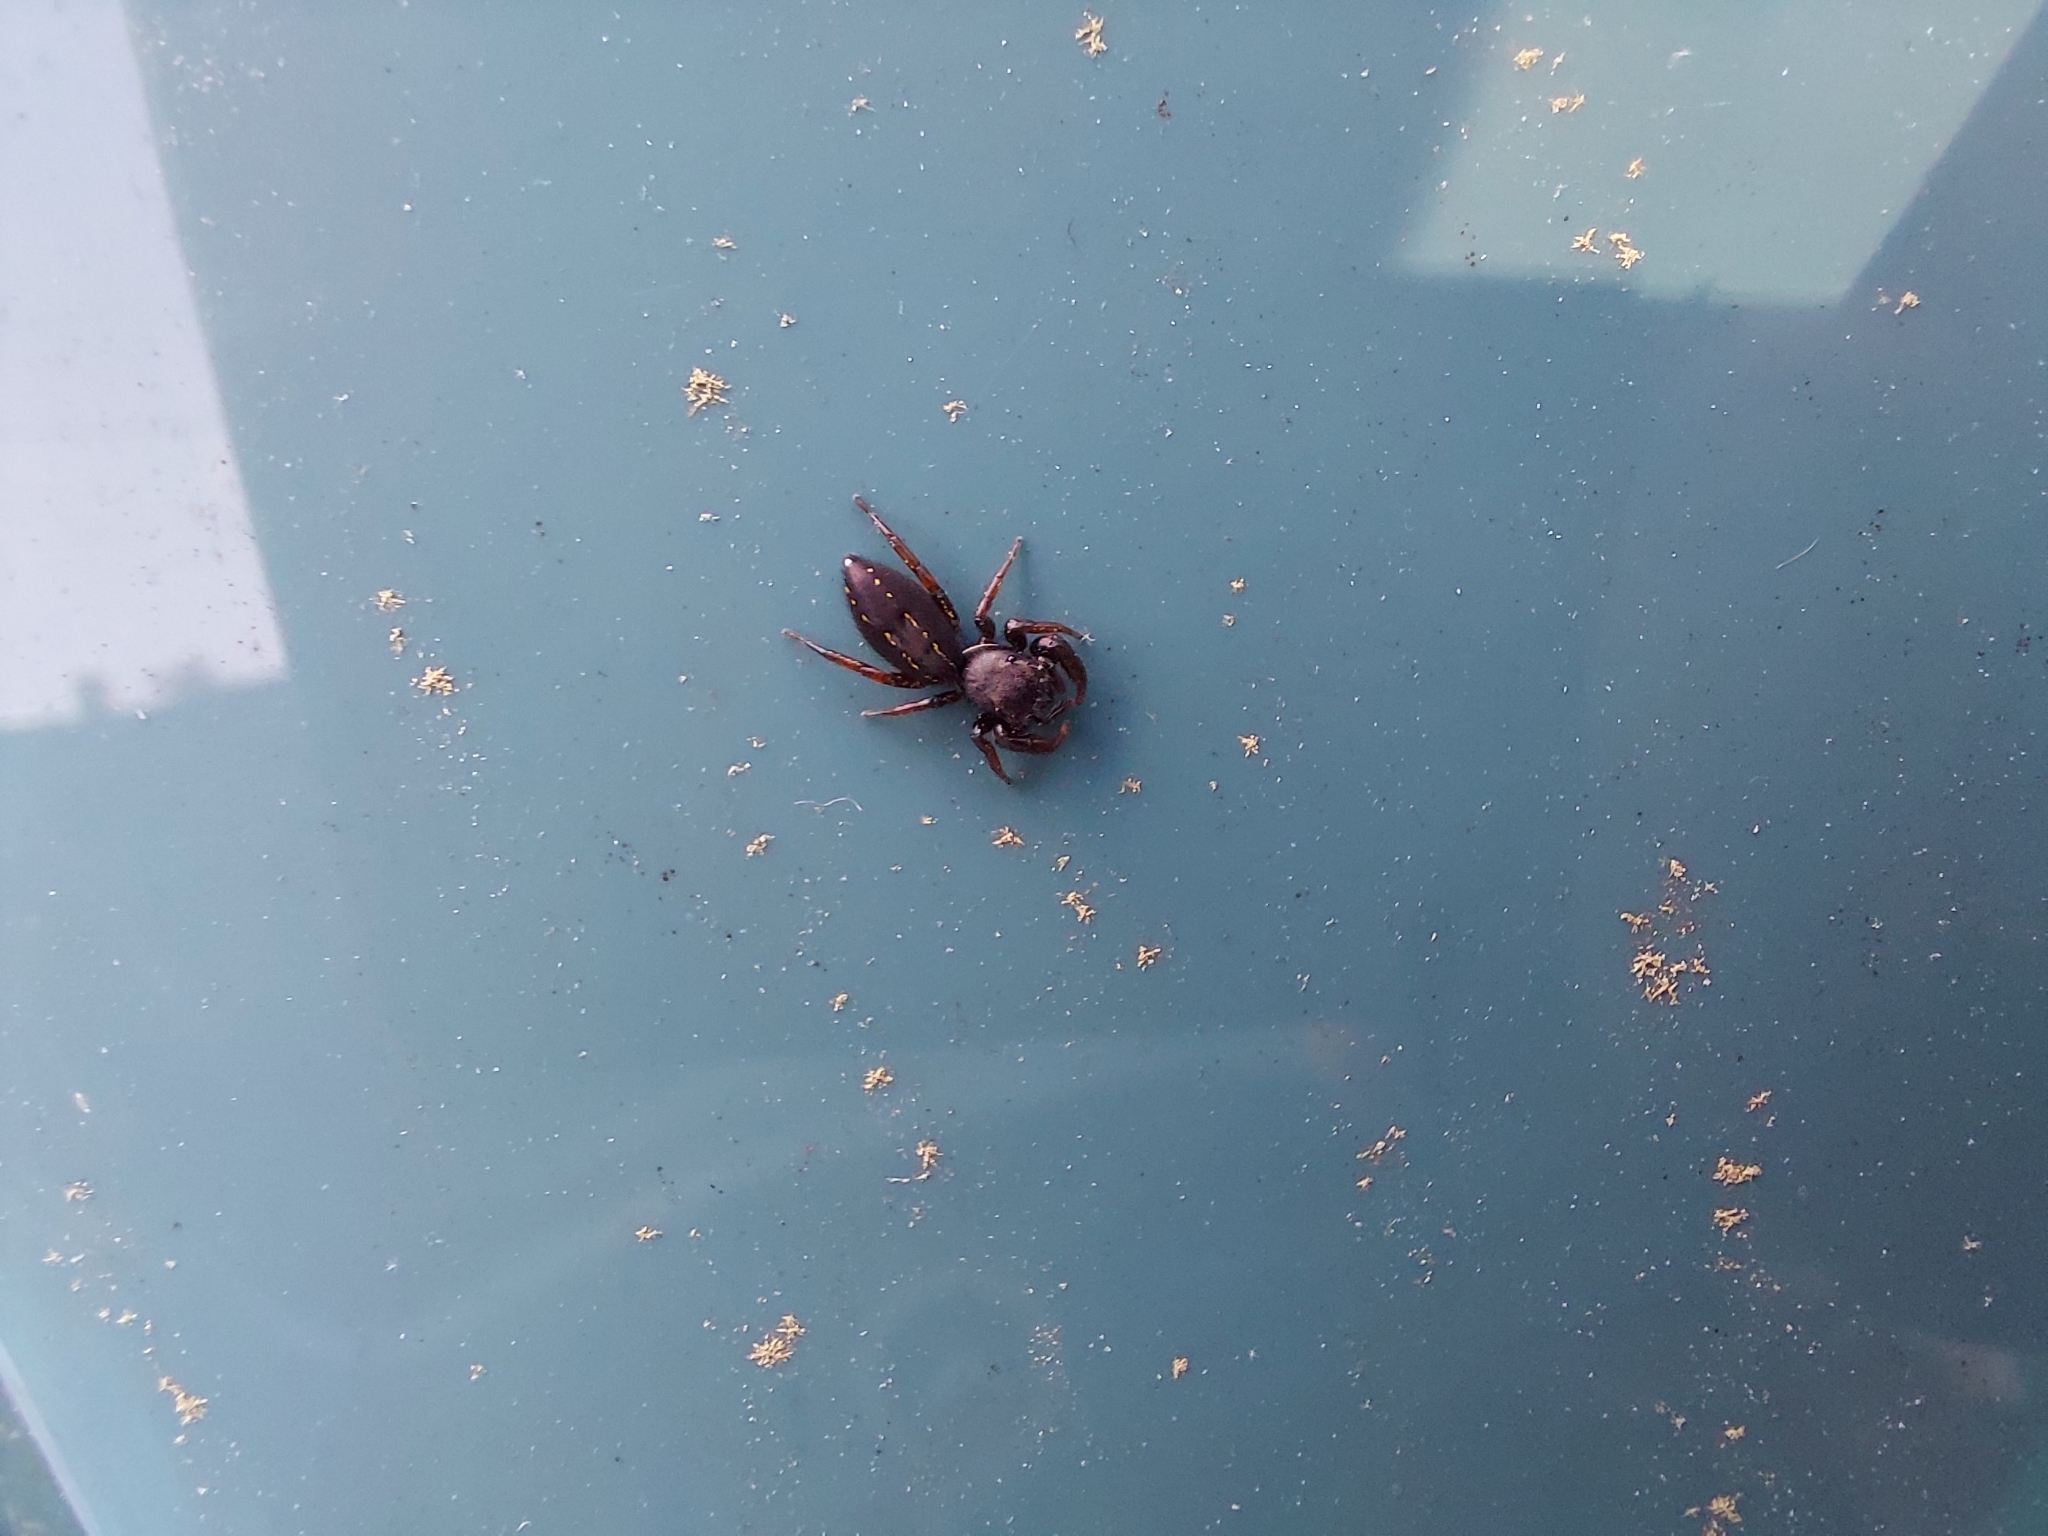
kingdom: Animalia
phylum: Arthropoda
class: Arachnida
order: Araneae
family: Salticidae
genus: Metacyrba
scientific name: Metacyrba taeniola
